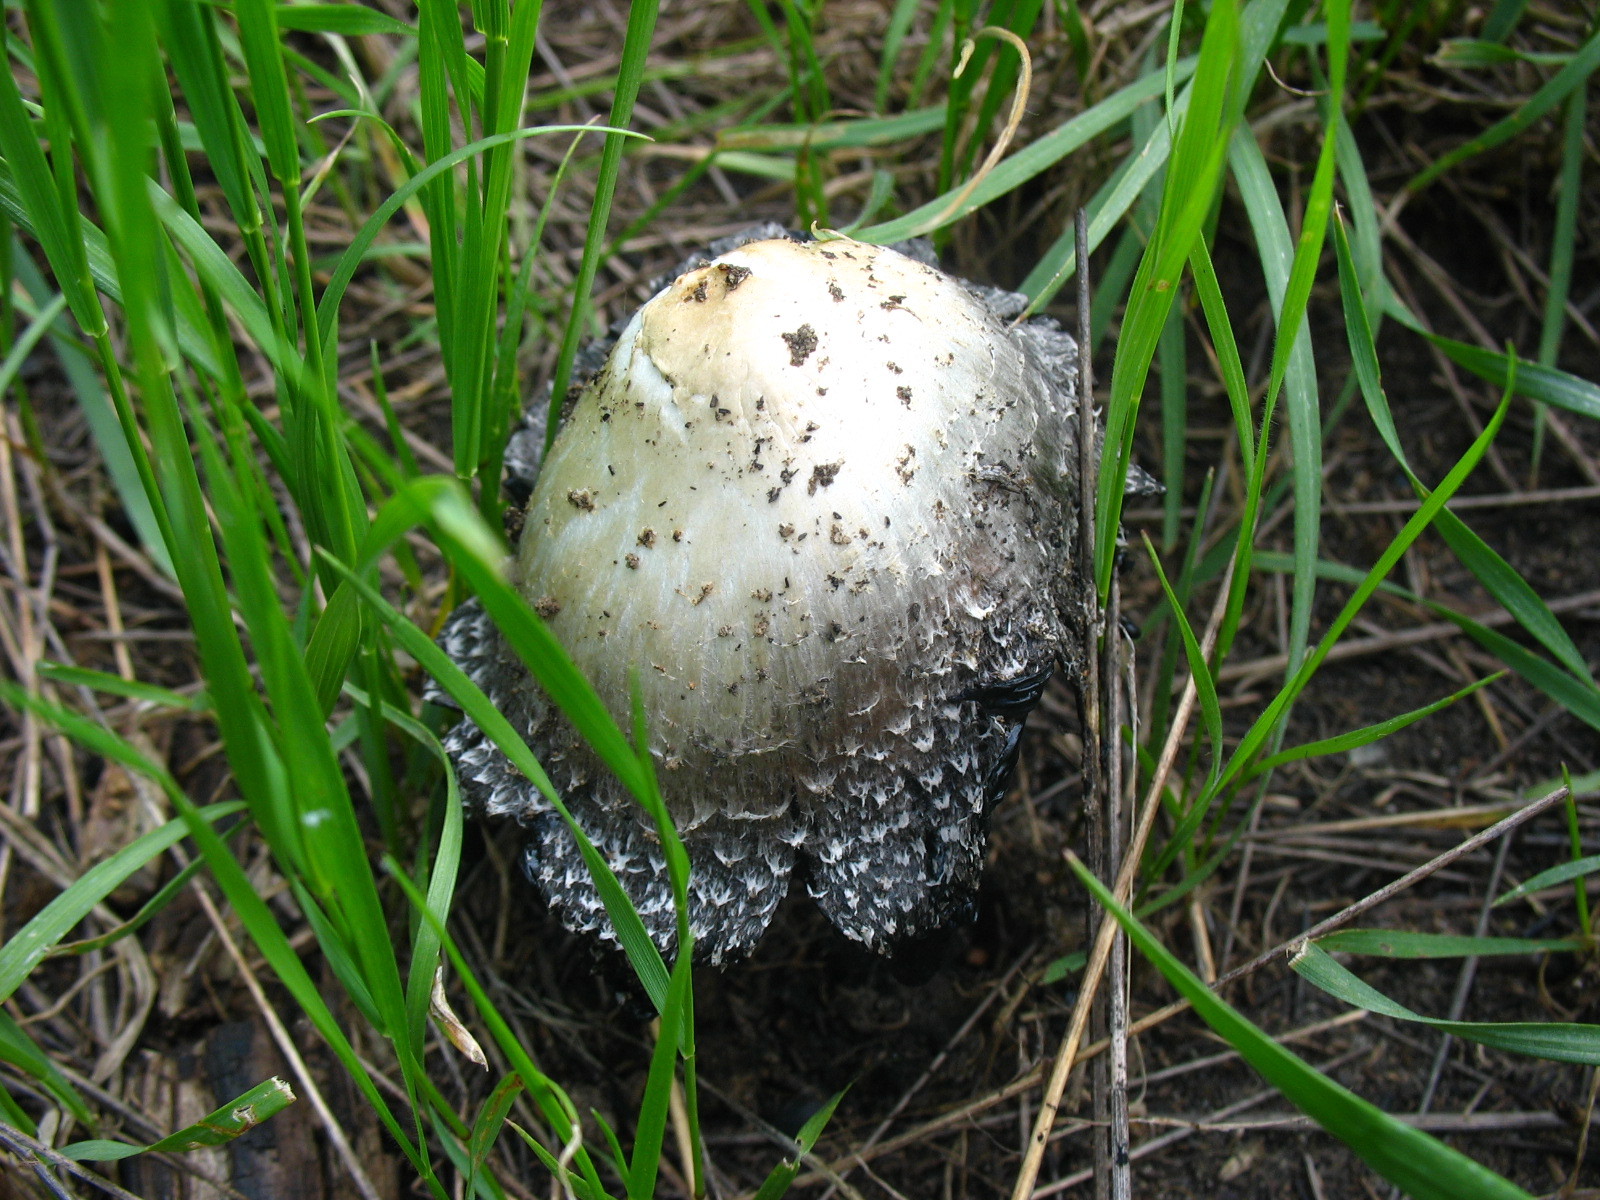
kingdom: Fungi
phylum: Basidiomycota
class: Agaricomycetes
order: Agaricales
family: Agaricaceae
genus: Coprinus
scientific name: Coprinus comatus
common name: Lawyer's wig
